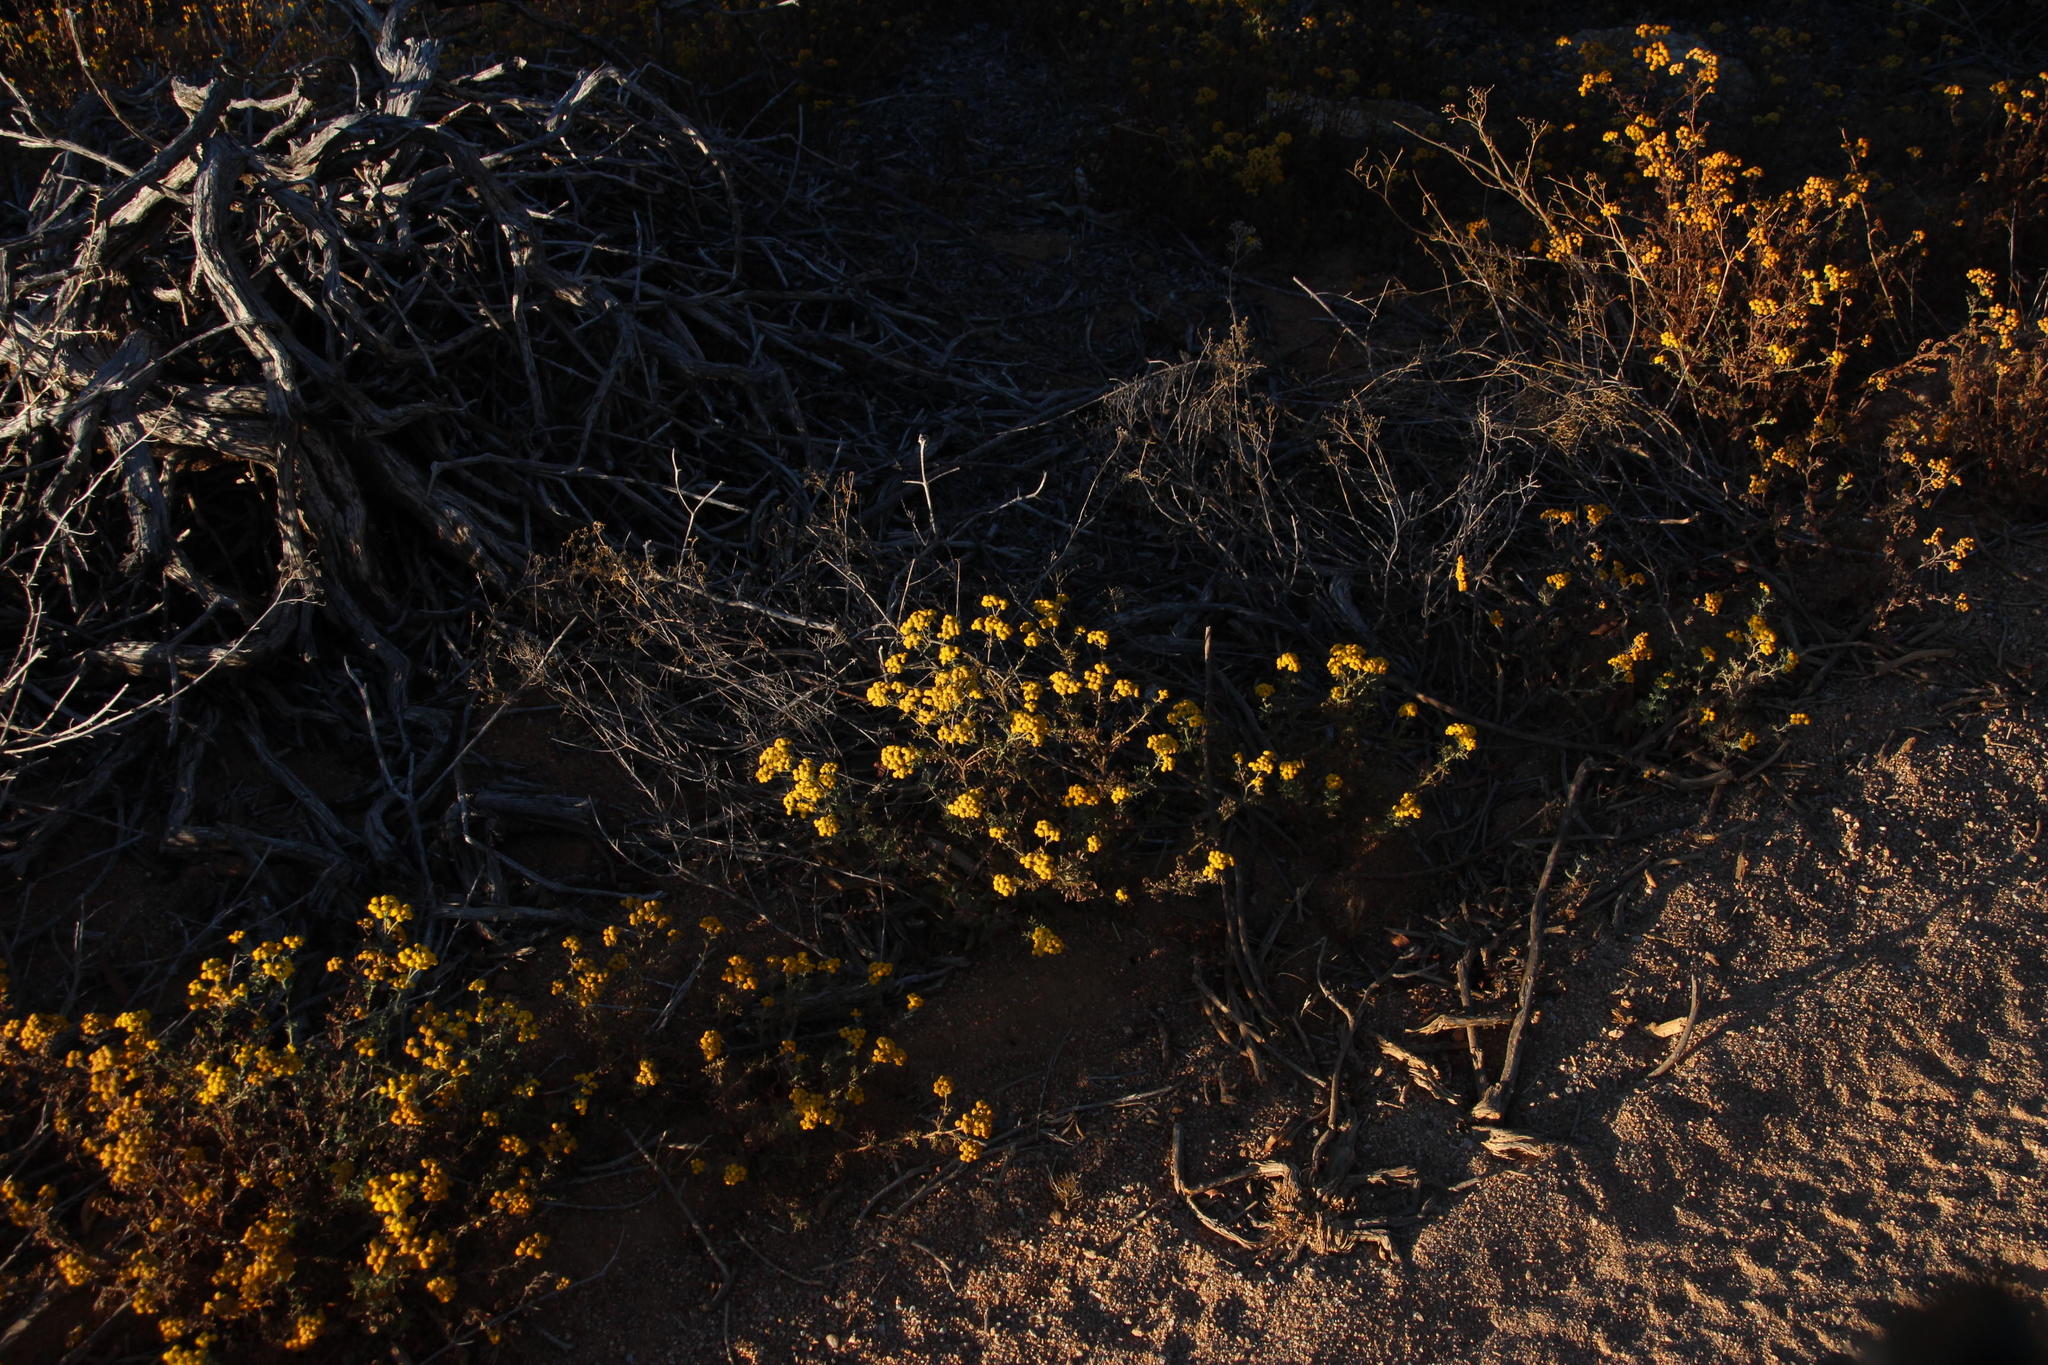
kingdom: Plantae
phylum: Tracheophyta
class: Magnoliopsida
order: Asterales
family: Asteraceae
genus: Oncosiphon
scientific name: Oncosiphon suffruticosus
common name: Shrubby mayweed
